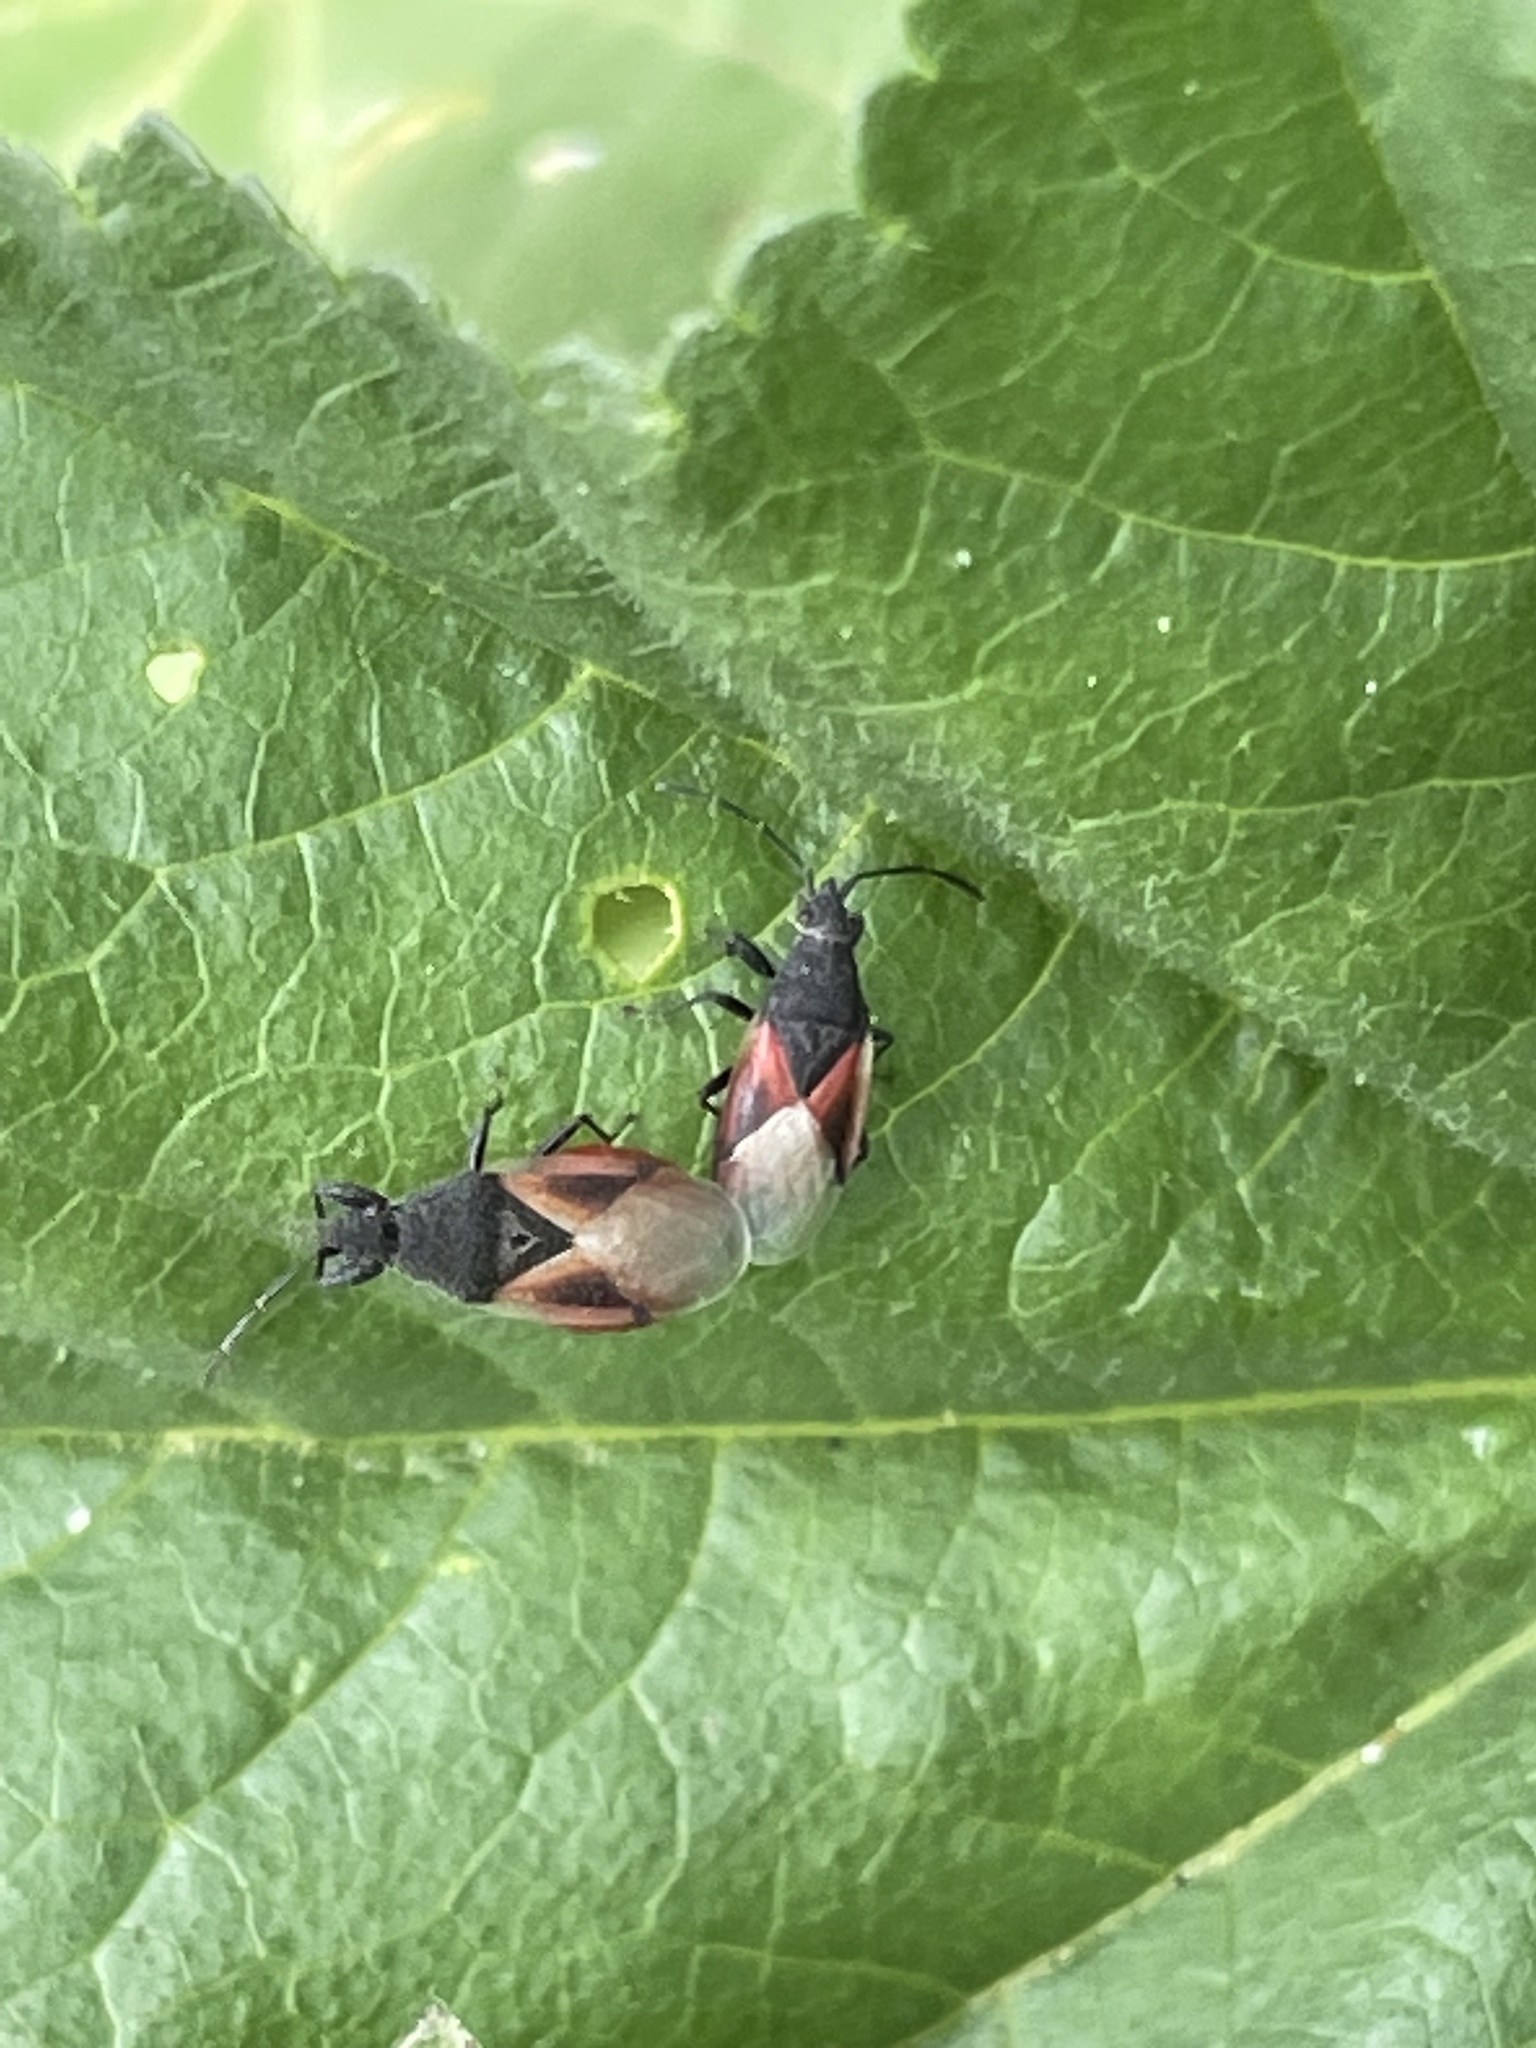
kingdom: Animalia
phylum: Arthropoda
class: Insecta
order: Hemiptera
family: Oxycarenidae
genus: Oxycarenus
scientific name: Oxycarenus lavaterae
